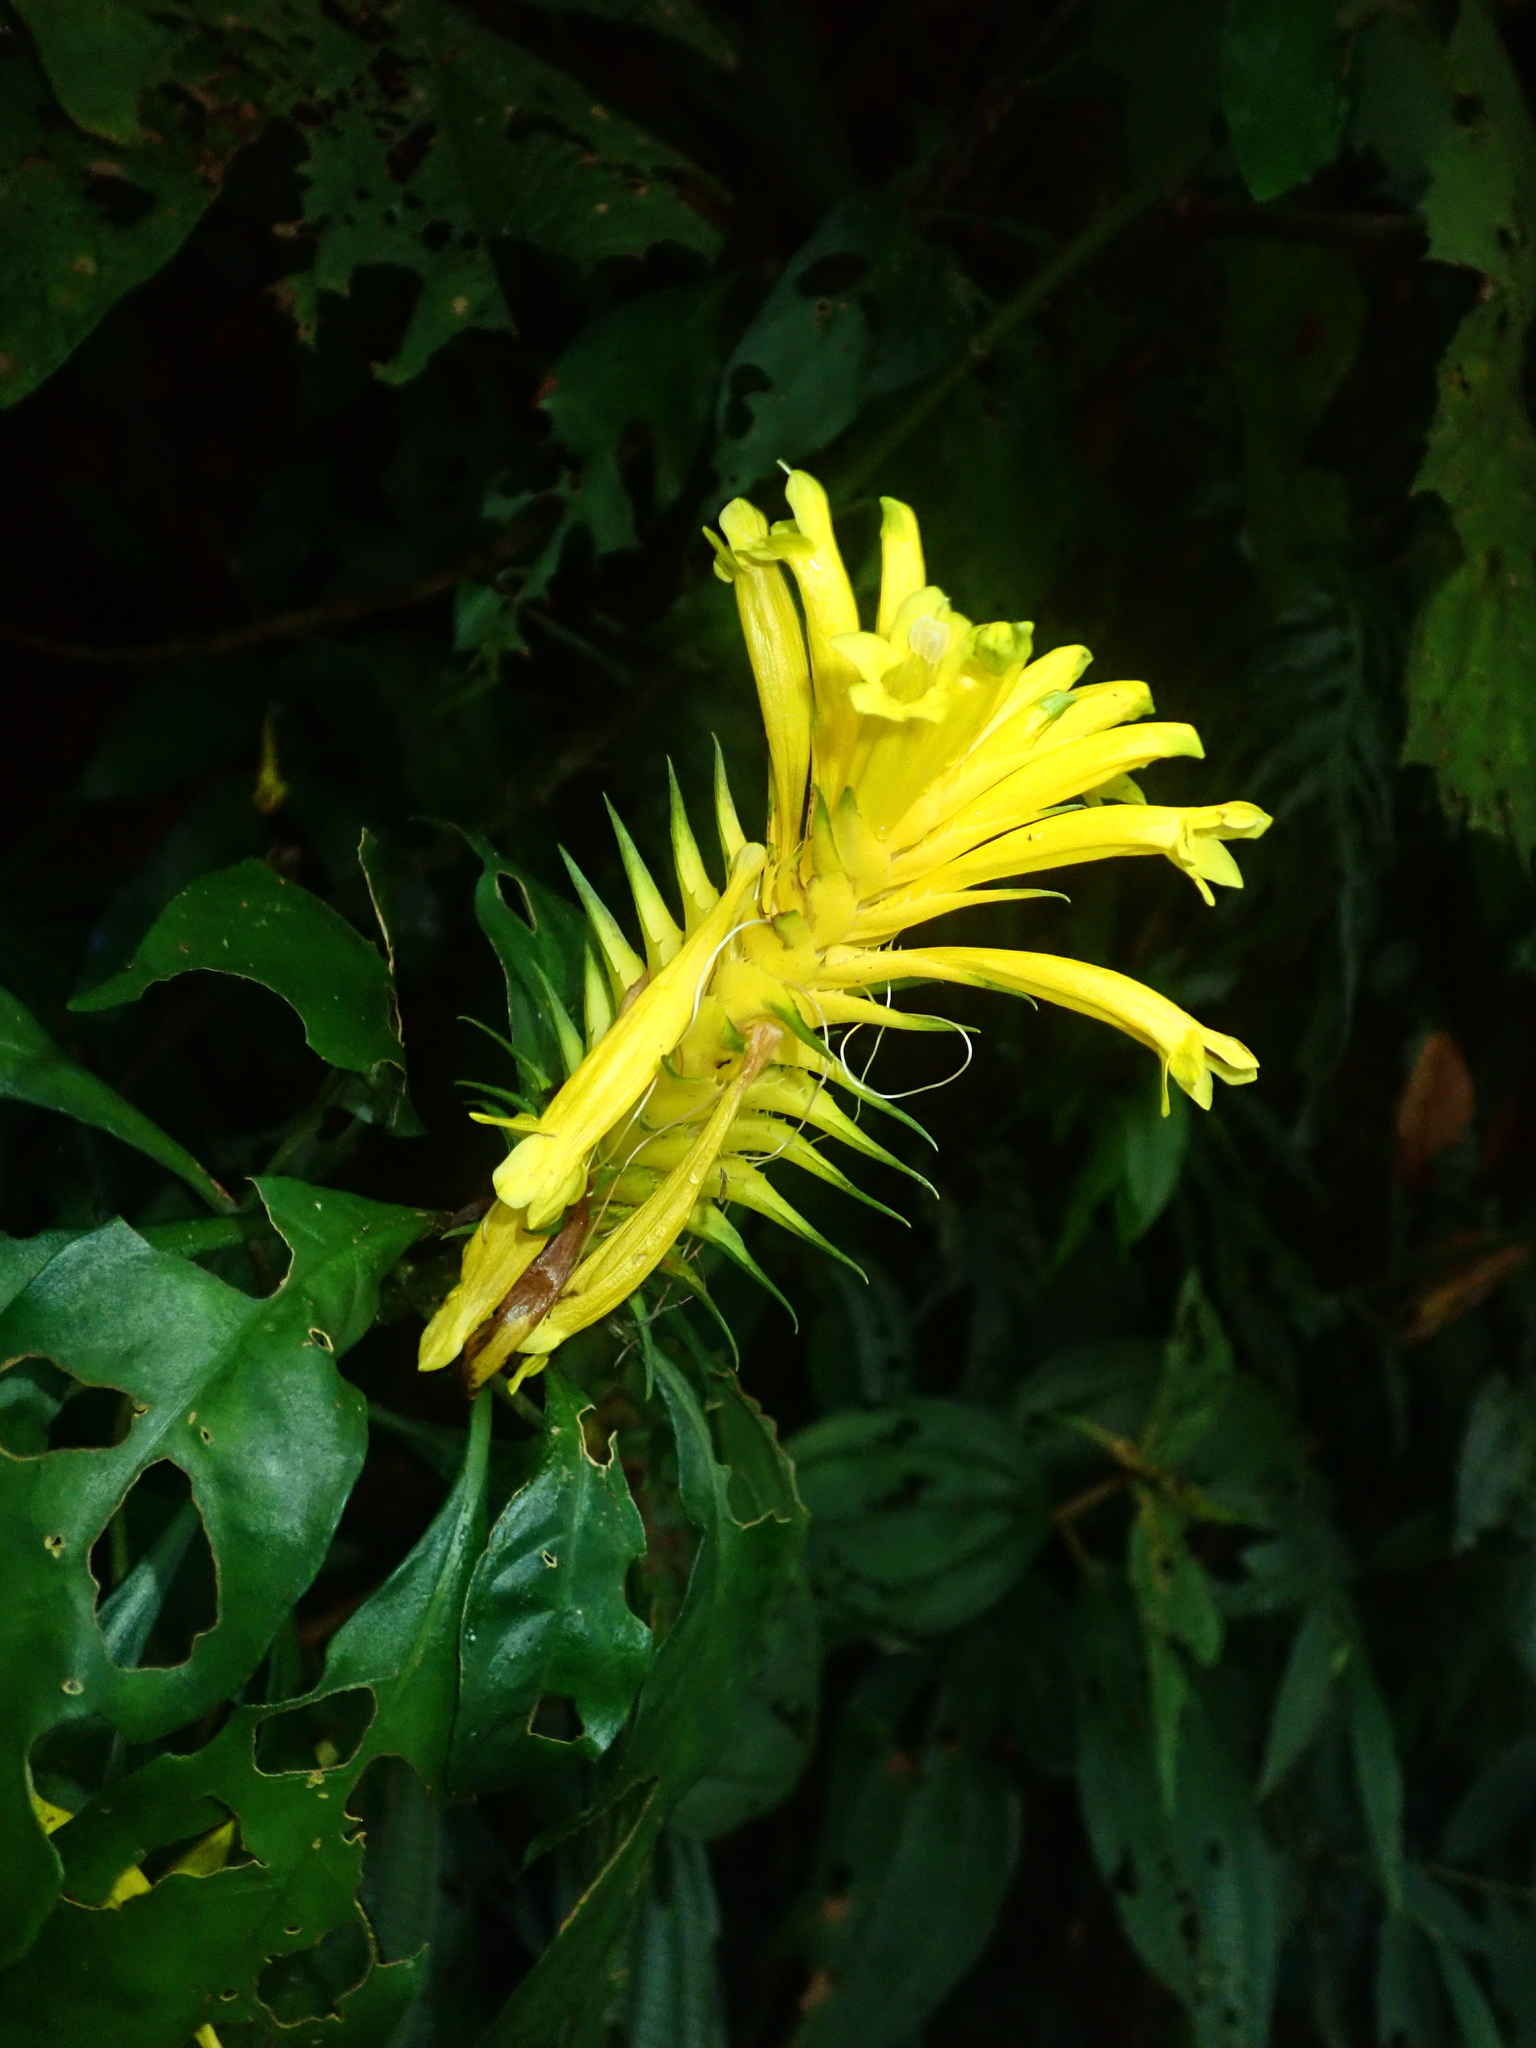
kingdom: Plantae
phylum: Tracheophyta
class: Magnoliopsida
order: Lamiales
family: Acanthaceae
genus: Aphelandra
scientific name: Aphelandra chamissoniana
